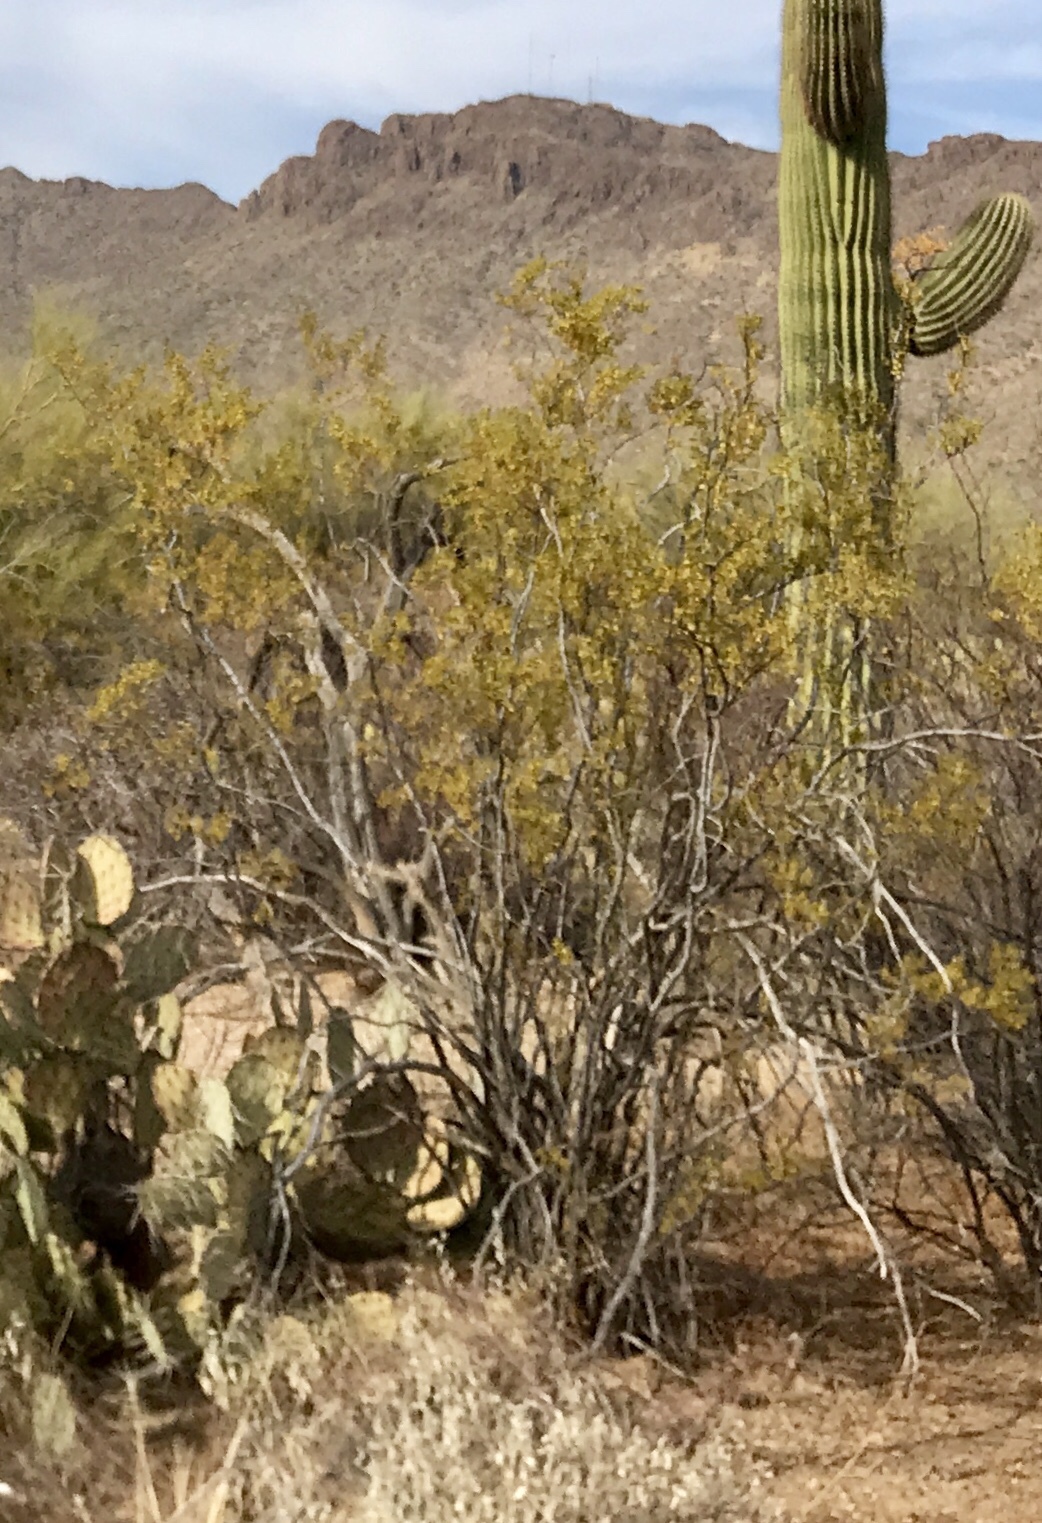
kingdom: Plantae
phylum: Tracheophyta
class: Magnoliopsida
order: Zygophyllales
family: Zygophyllaceae
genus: Larrea
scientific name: Larrea tridentata
